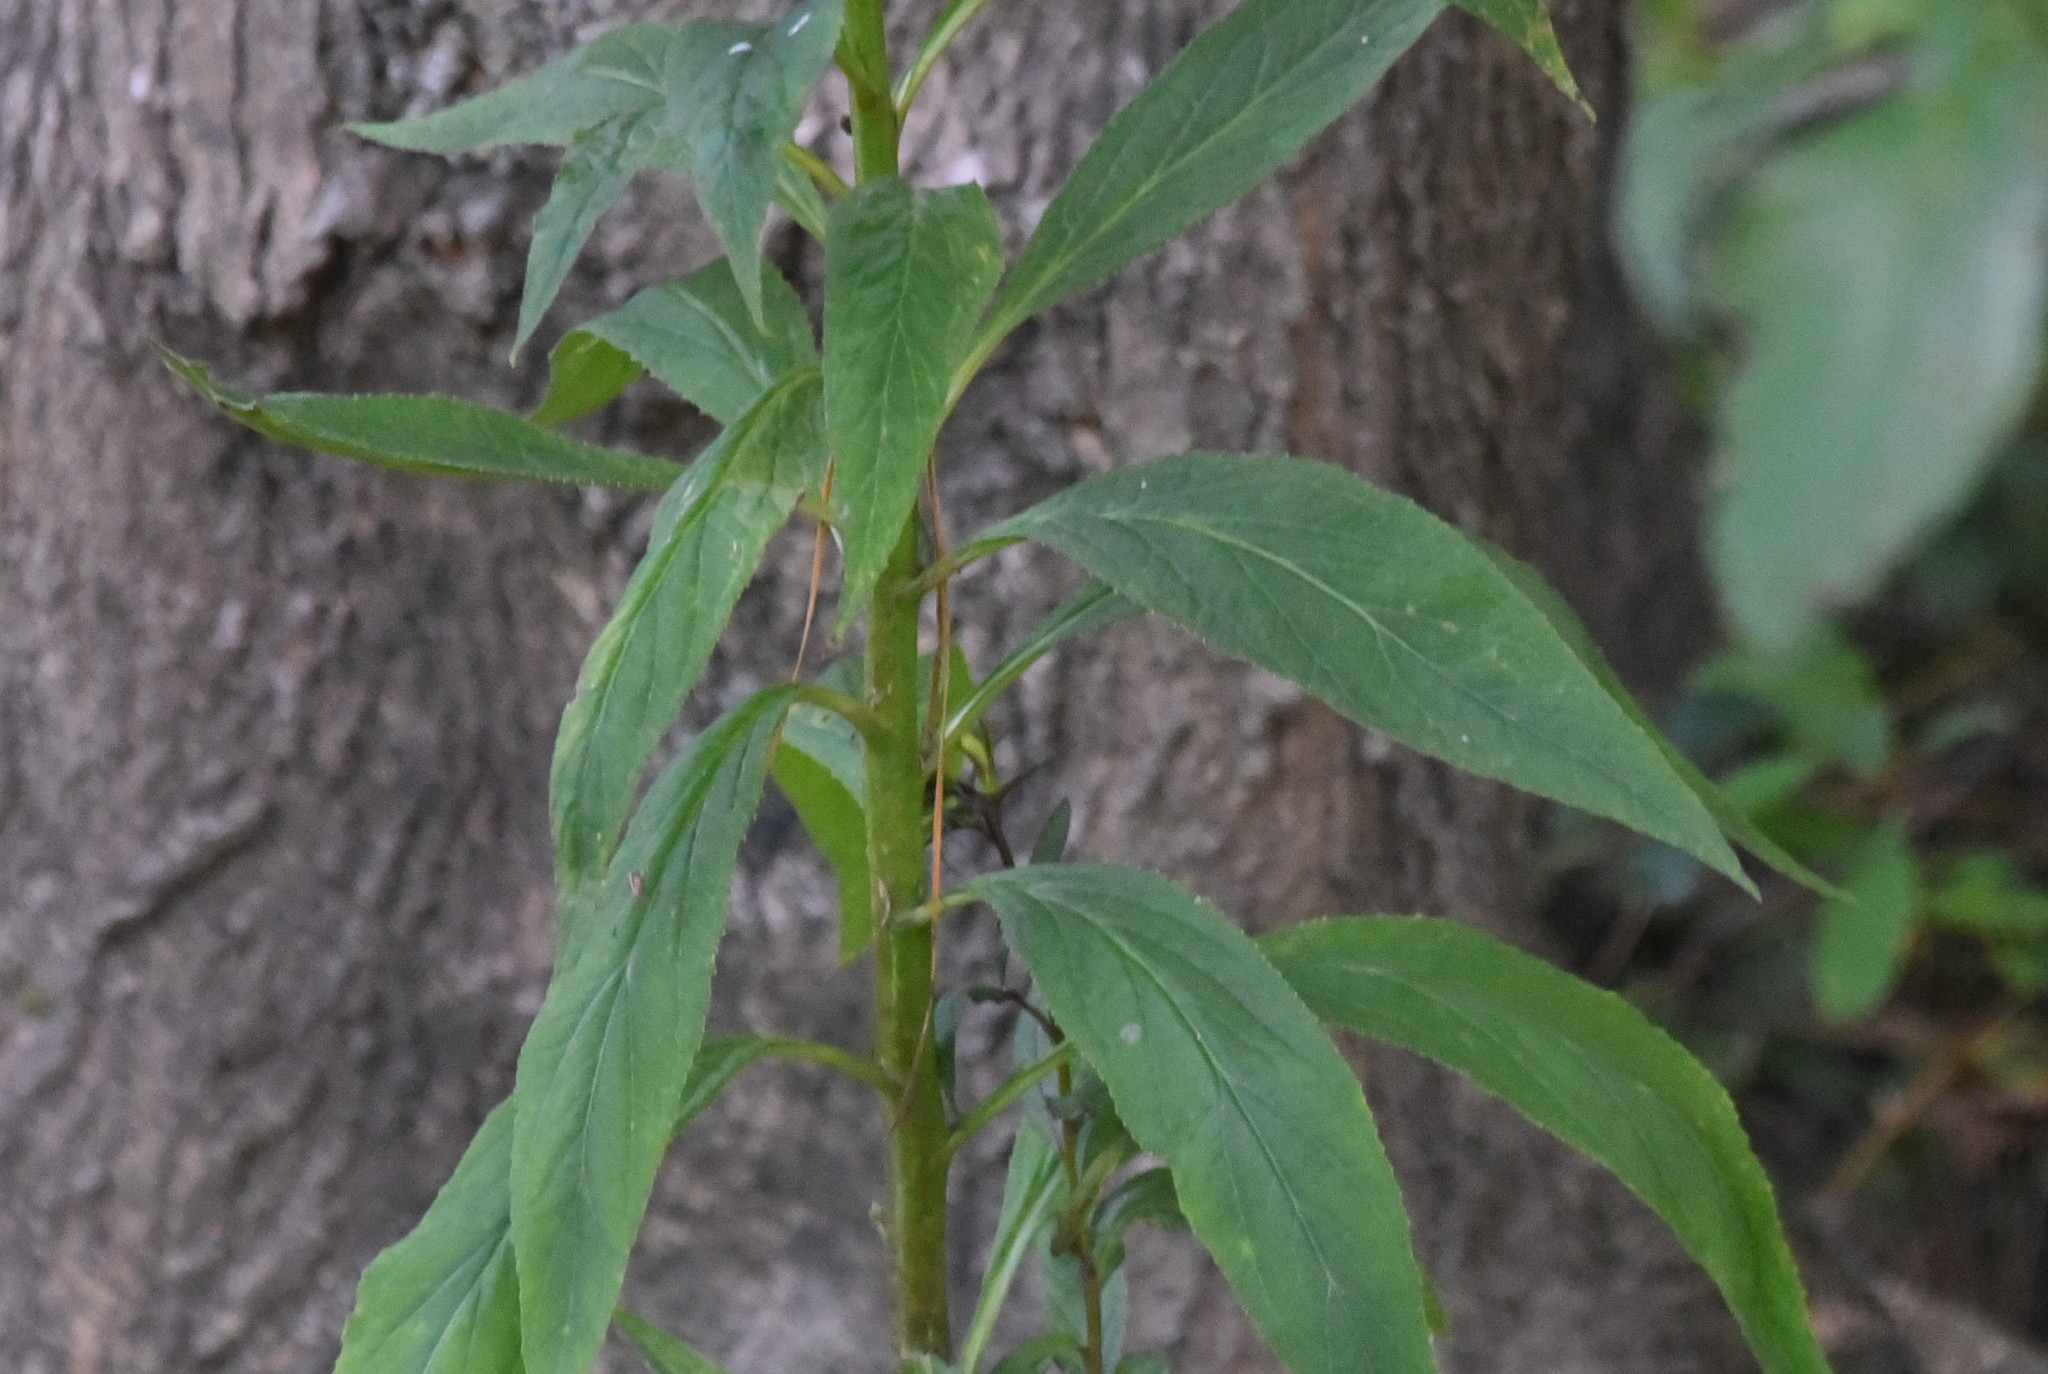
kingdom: Plantae
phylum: Tracheophyta
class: Magnoliopsida
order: Asterales
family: Campanulaceae
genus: Lobelia
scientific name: Lobelia cardinalis
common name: Cardinal flower
